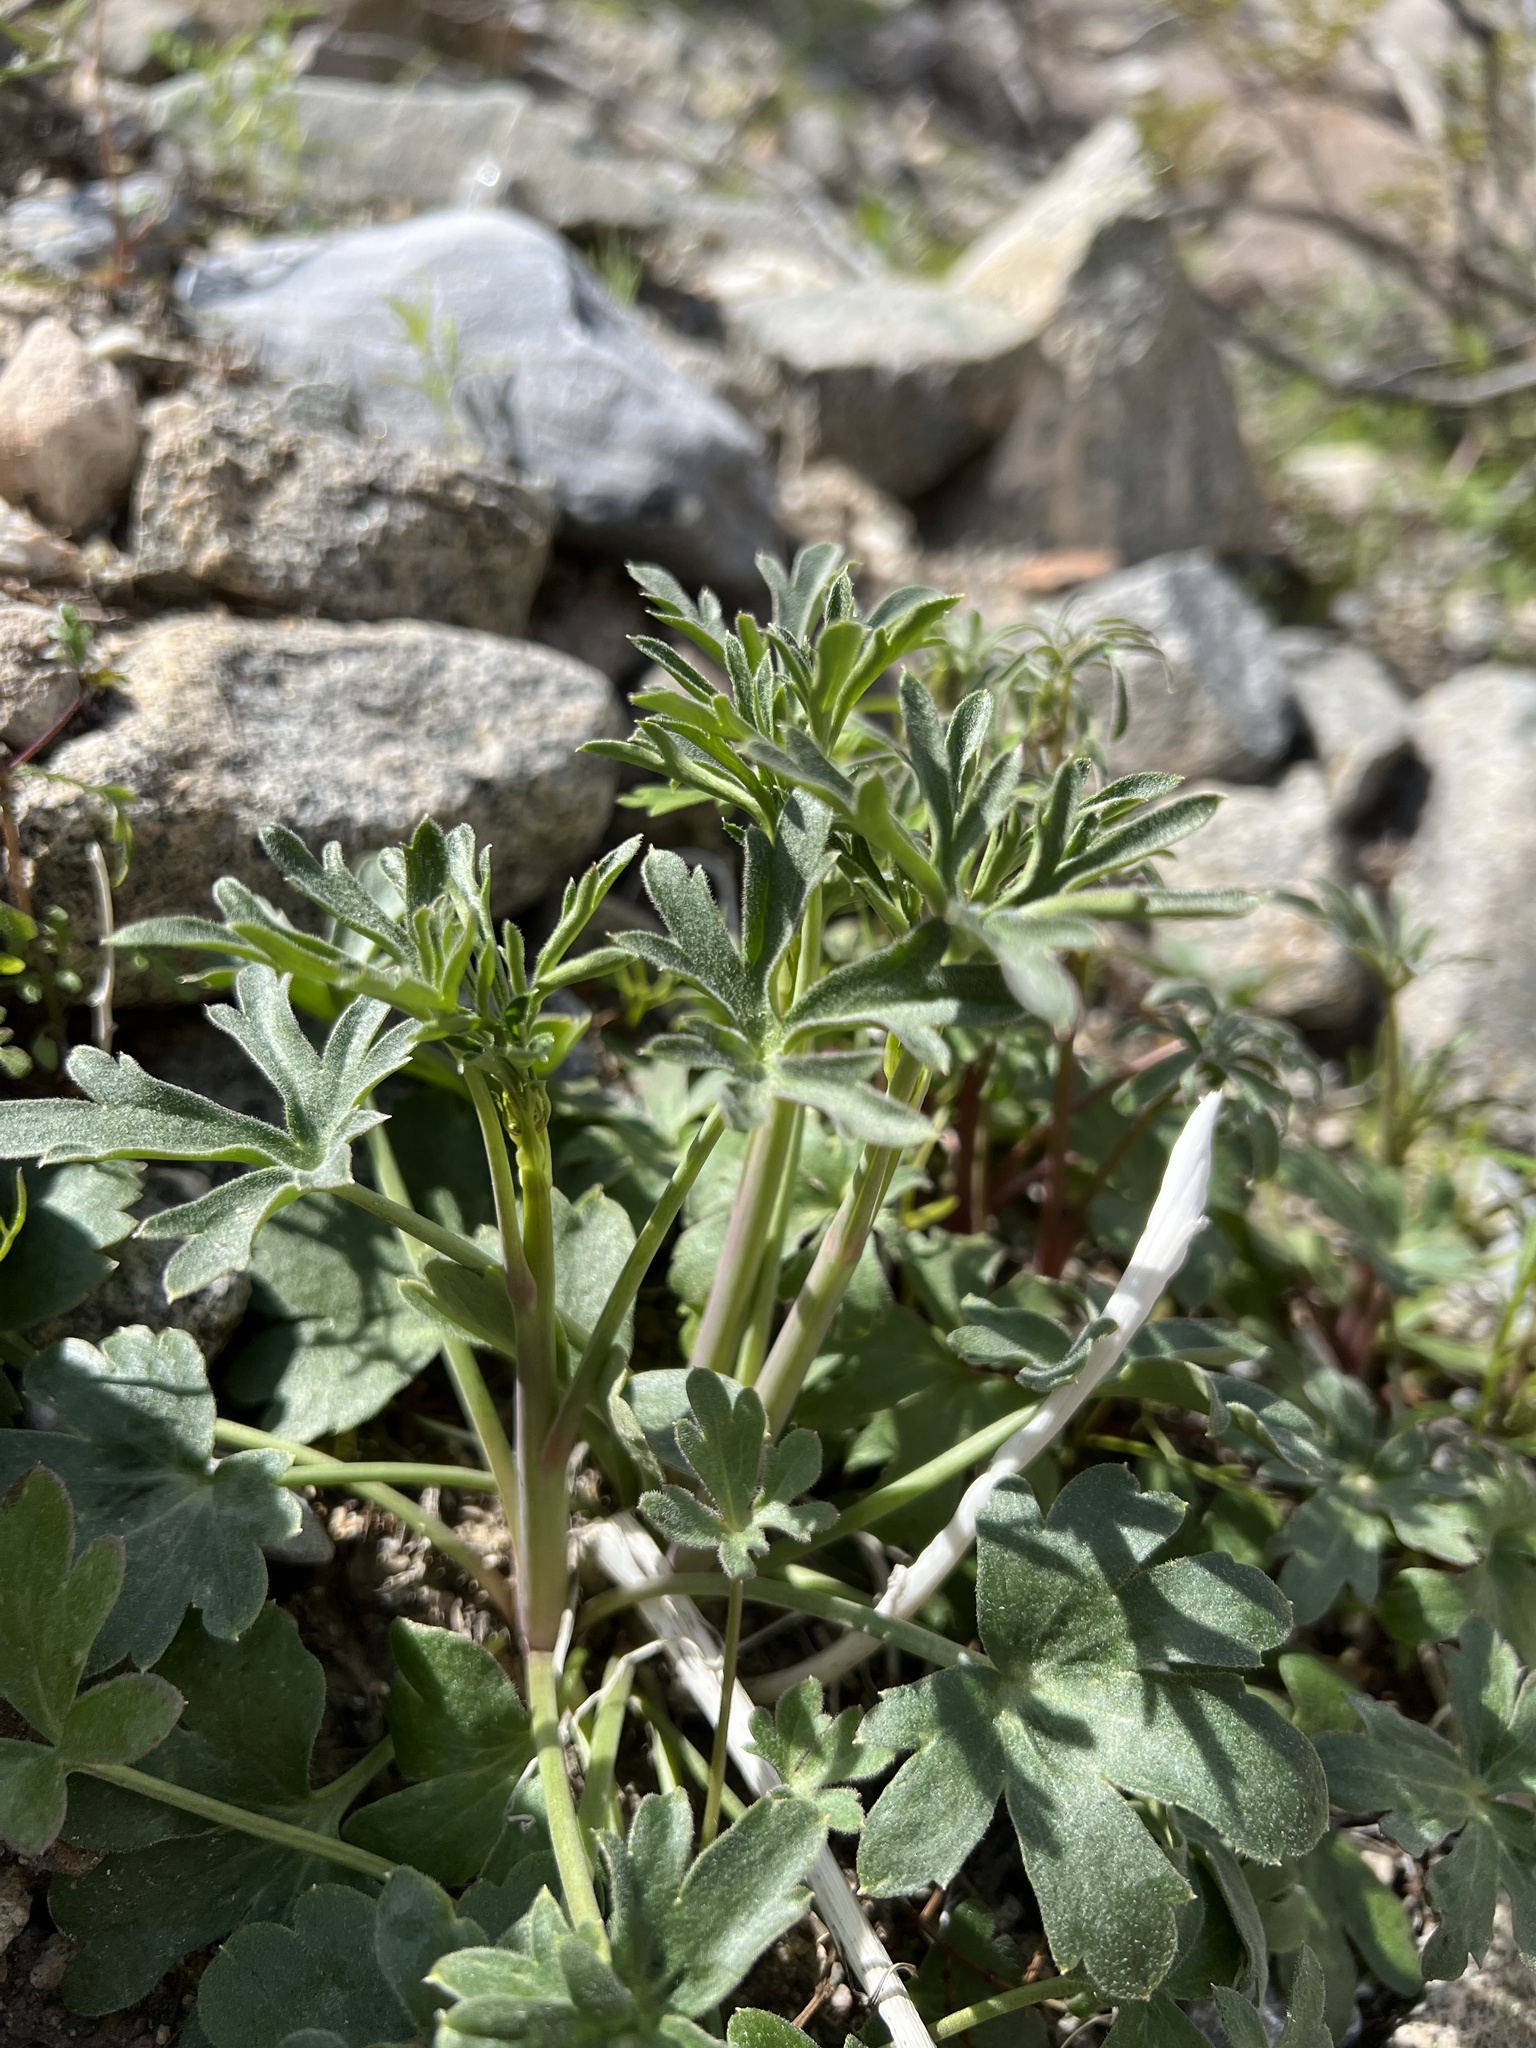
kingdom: Plantae
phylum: Tracheophyta
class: Magnoliopsida
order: Ranunculales
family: Ranunculaceae
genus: Delphinium
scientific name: Delphinium parishii
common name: Apache larkspur
